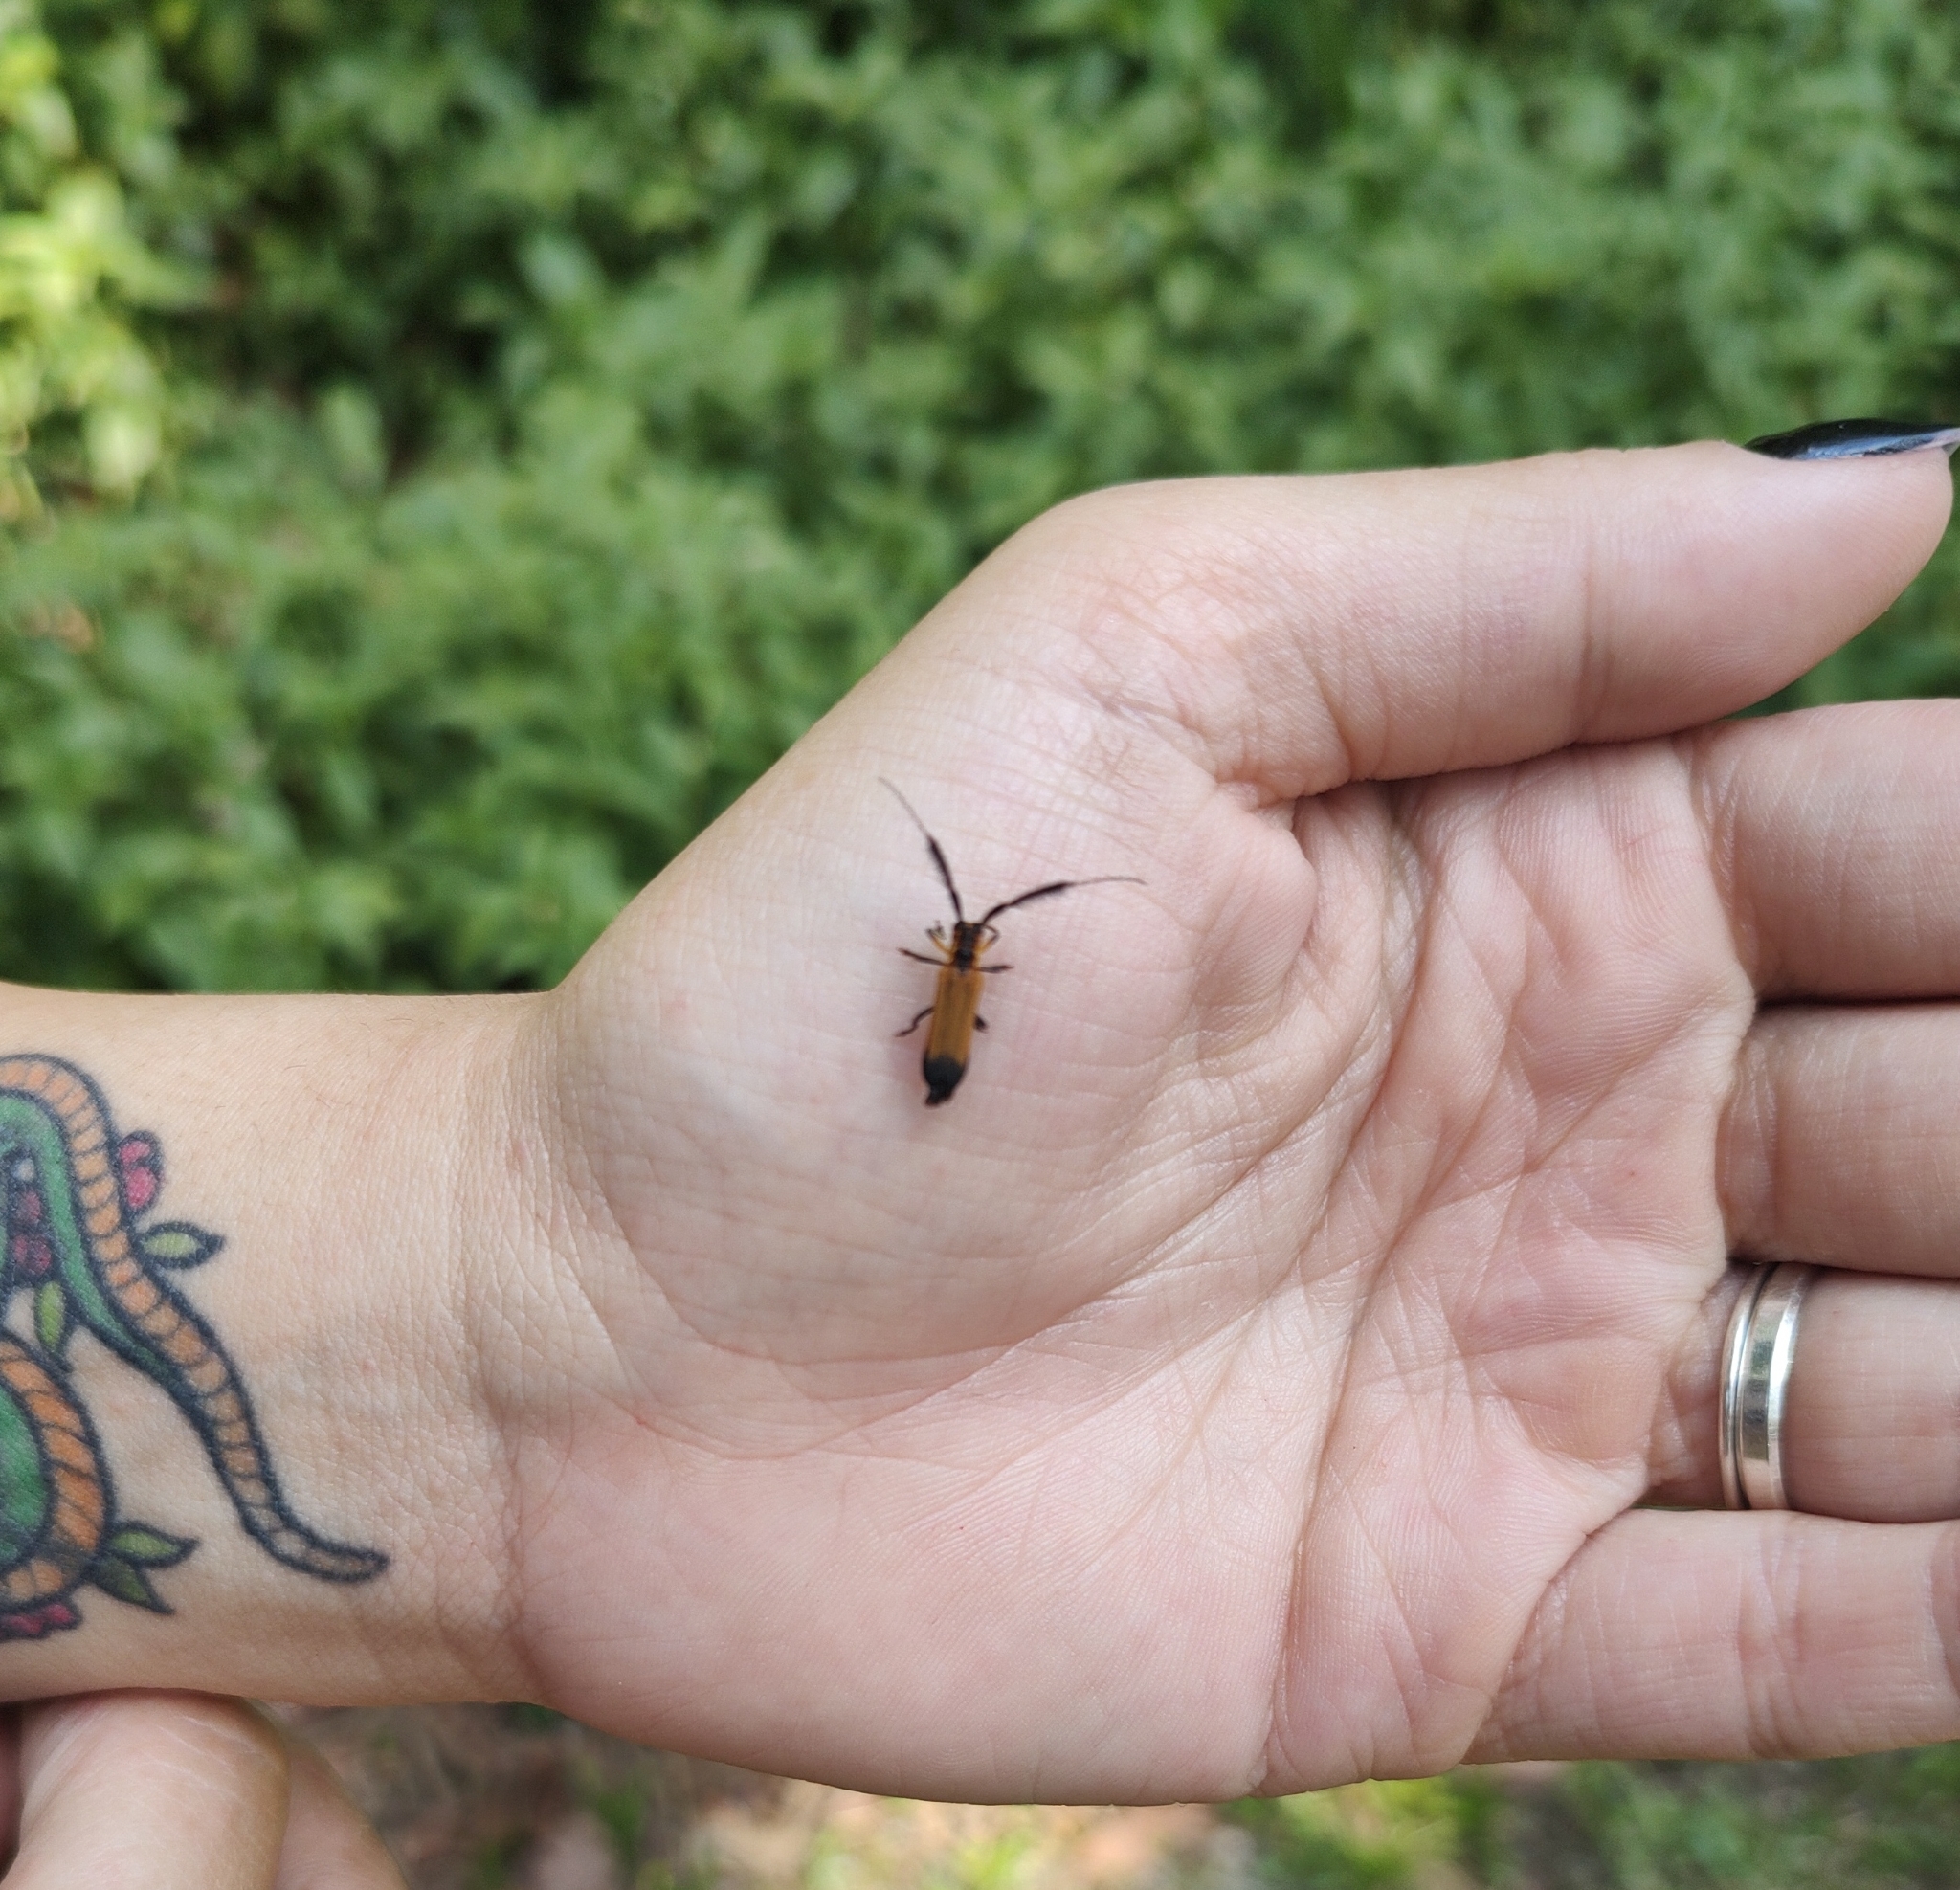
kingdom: Animalia
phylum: Arthropoda
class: Insecta
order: Coleoptera
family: Cerambycidae
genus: Malacoscylus
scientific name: Malacoscylus gonostigma
